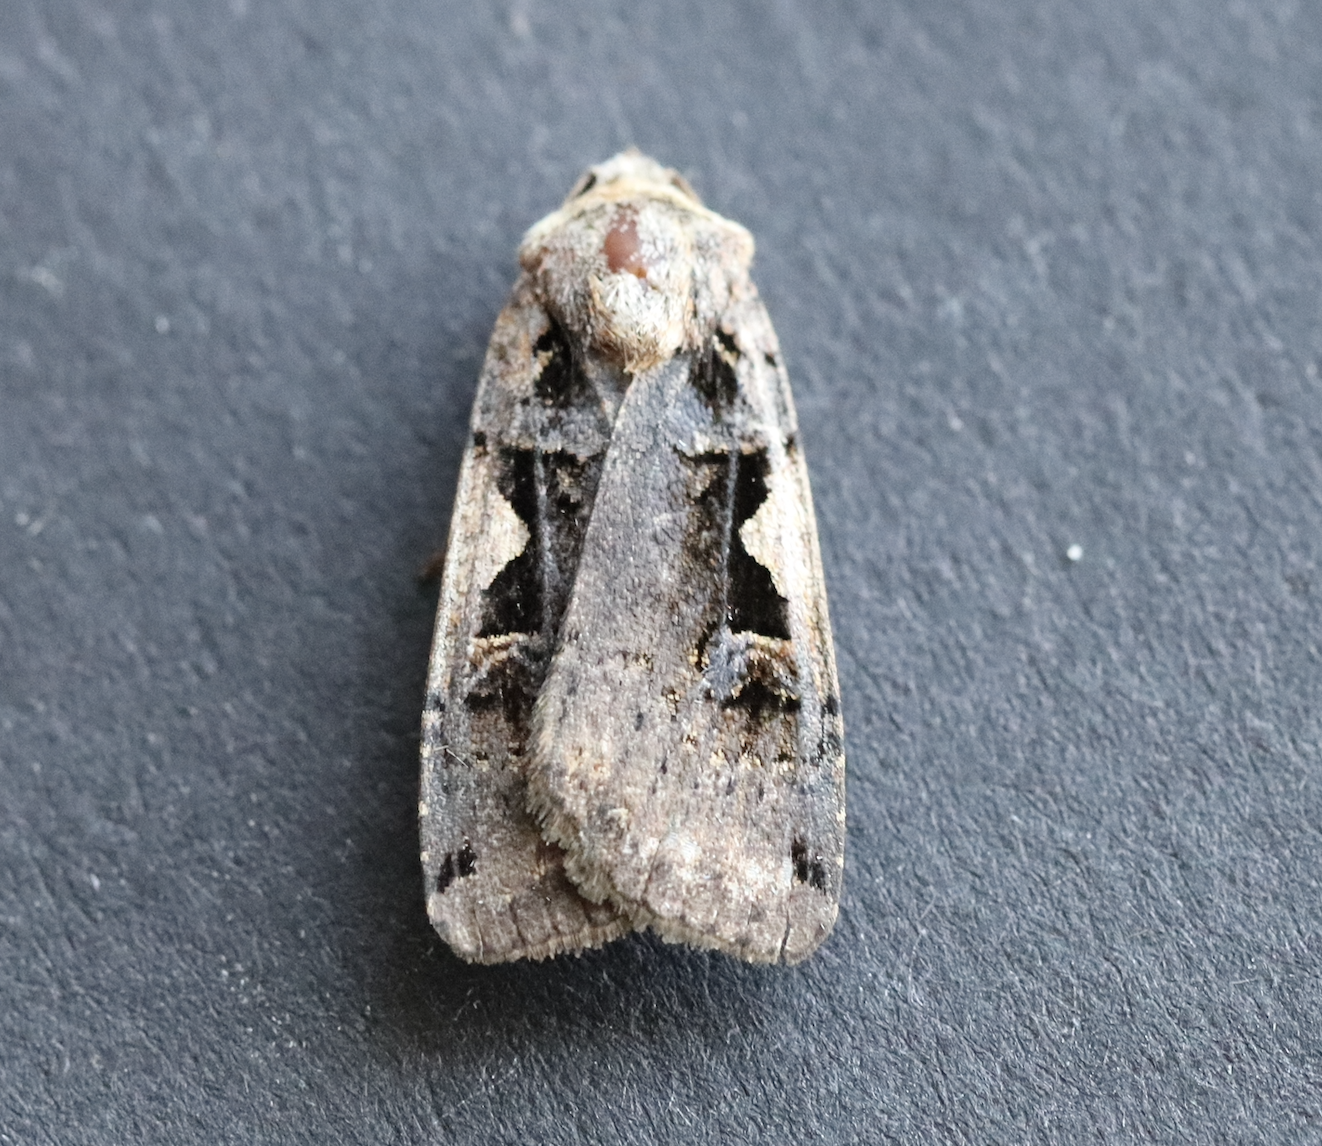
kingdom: Animalia
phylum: Arthropoda
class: Insecta
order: Lepidoptera
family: Noctuidae
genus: Xestia
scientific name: Xestia c-nigrum
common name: Setaceous hebrew character
